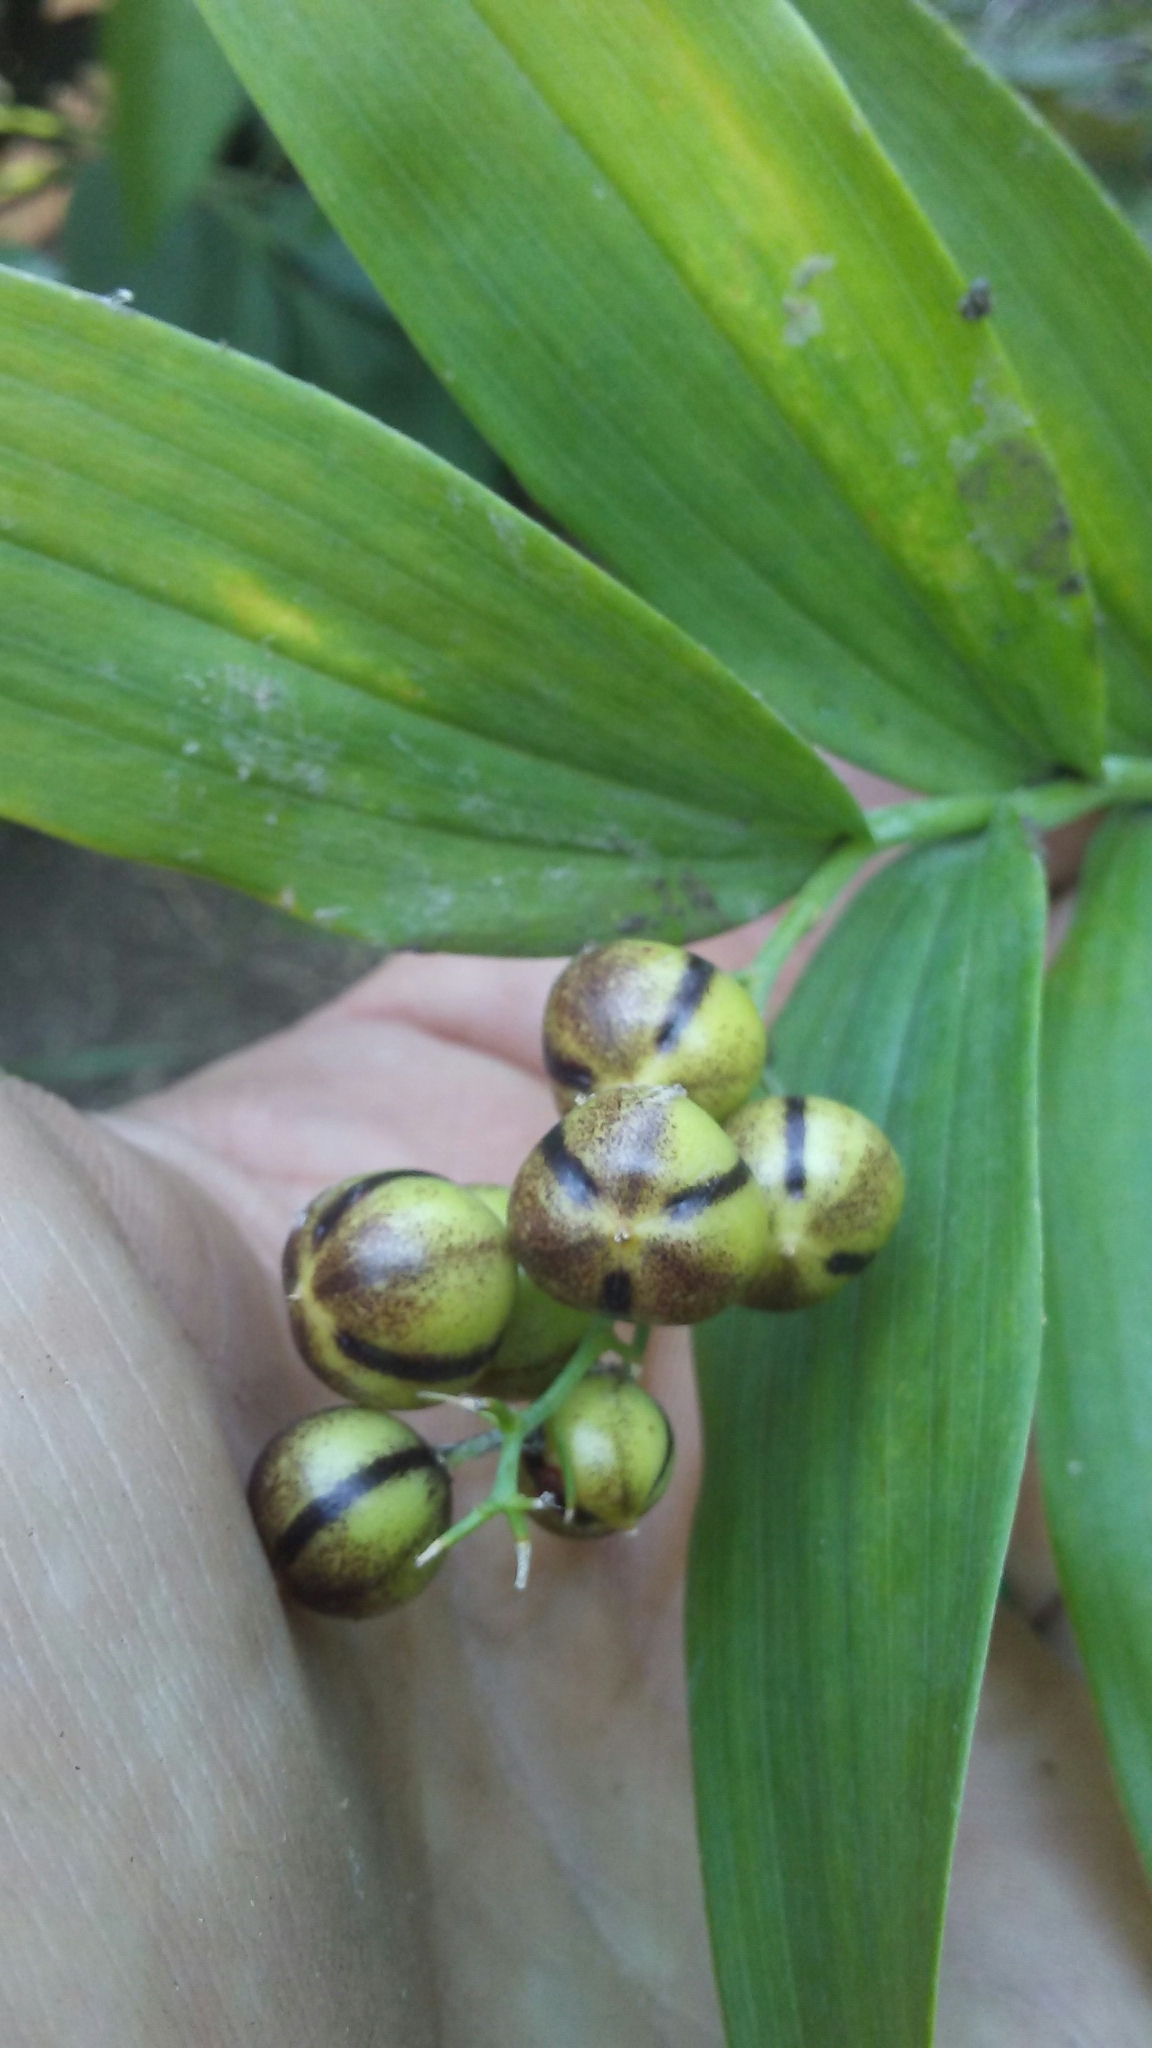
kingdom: Plantae
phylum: Tracheophyta
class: Liliopsida
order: Asparagales
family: Asparagaceae
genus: Maianthemum
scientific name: Maianthemum stellatum
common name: Little false solomon's seal
